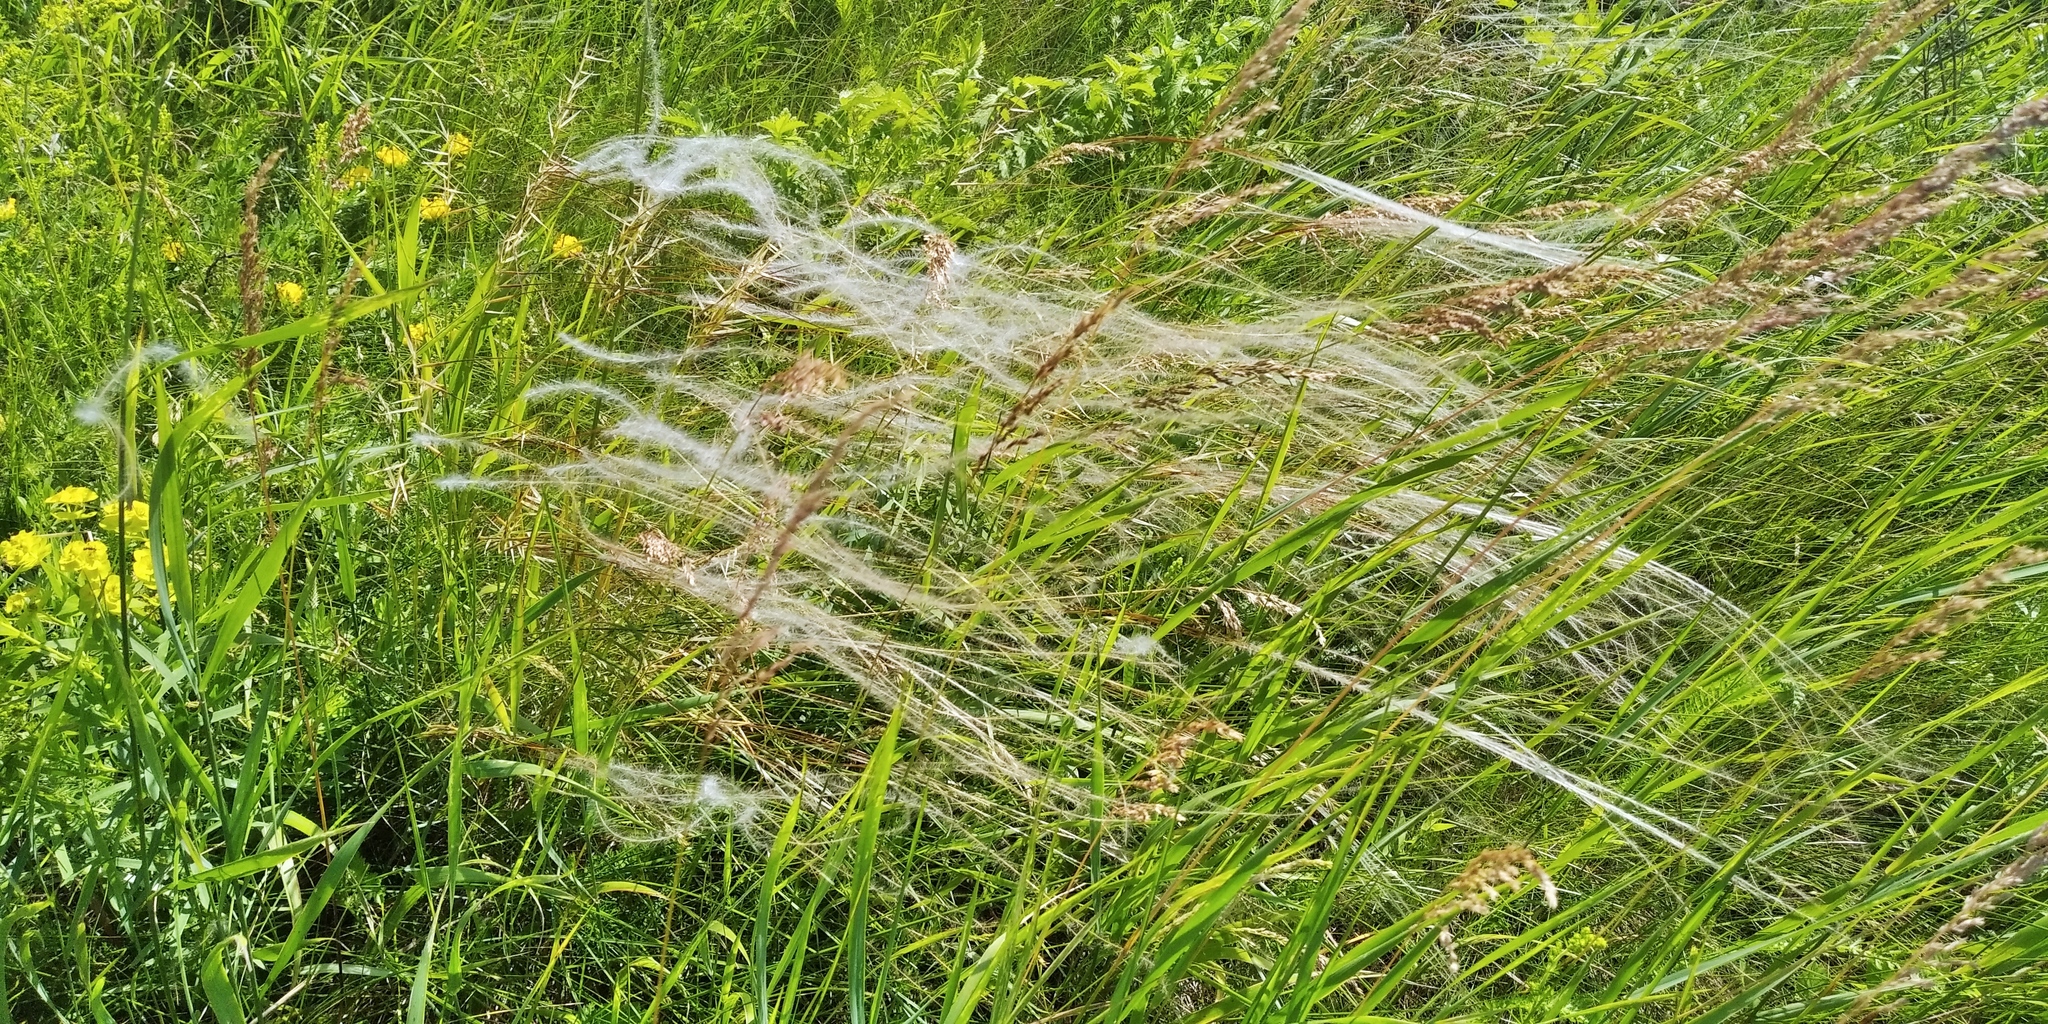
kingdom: Plantae
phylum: Tracheophyta
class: Liliopsida
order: Poales
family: Poaceae
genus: Stipa
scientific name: Stipa pennata
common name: European feather grass
